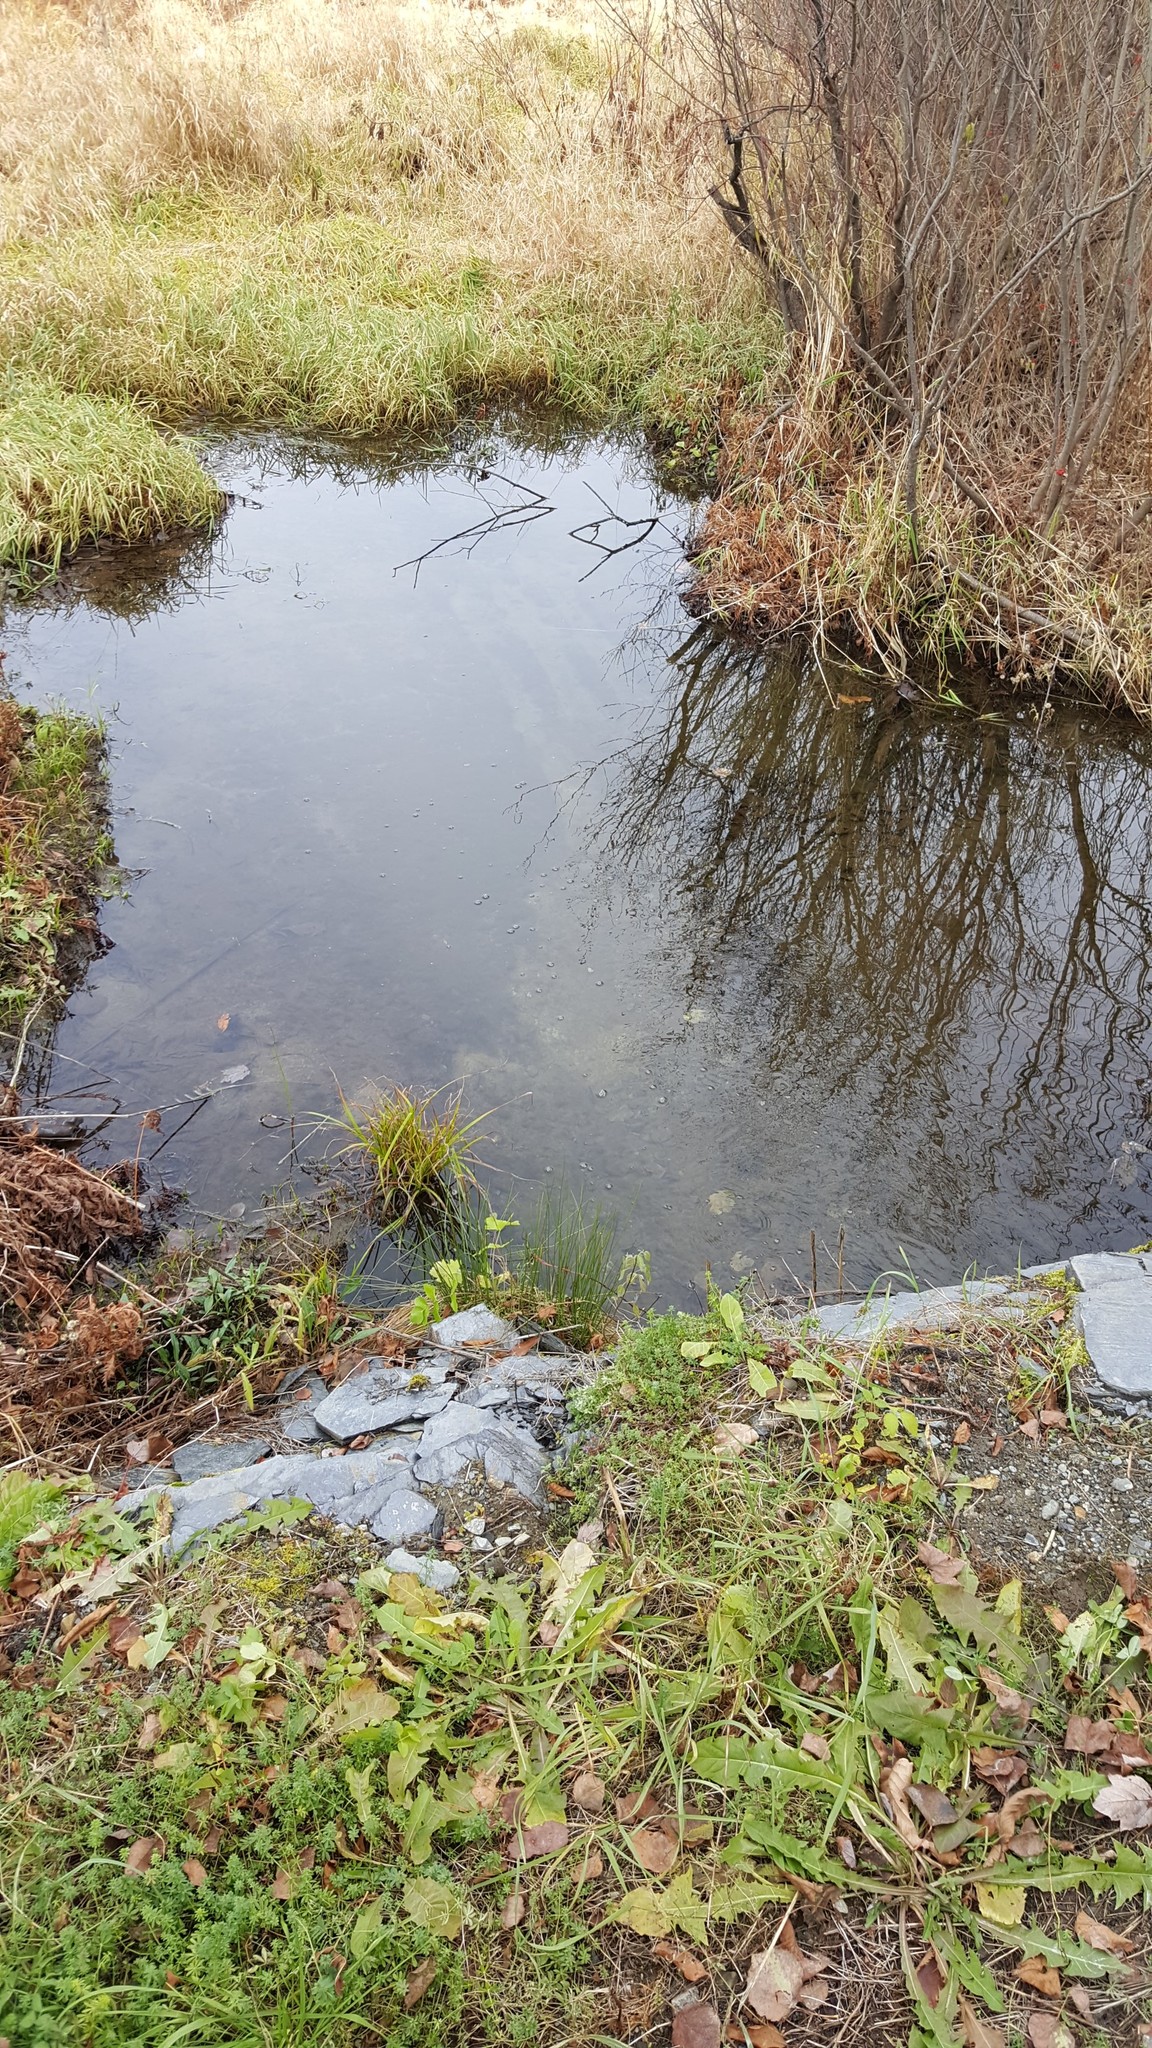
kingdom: Plantae
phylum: Tracheophyta
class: Magnoliopsida
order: Gentianales
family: Rubiaceae
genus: Galium
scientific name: Galium mollugo
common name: Hedge bedstraw
